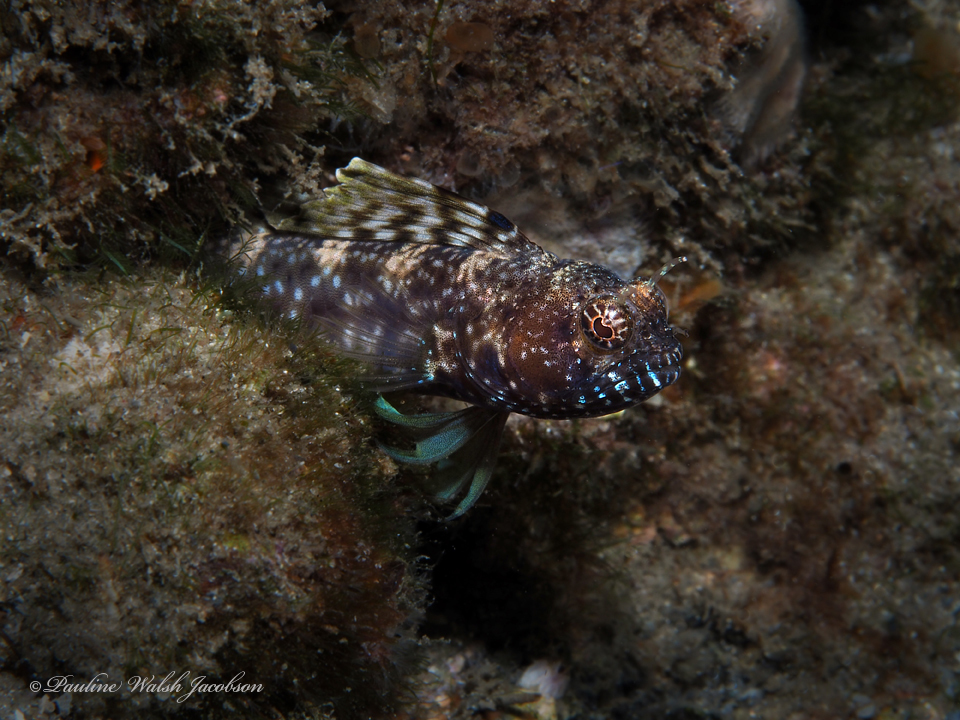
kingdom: Animalia
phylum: Chordata
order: Perciformes
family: Chaenopsidae
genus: Emblemaria
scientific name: Emblemaria pandionis
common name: Sailfin blenny
